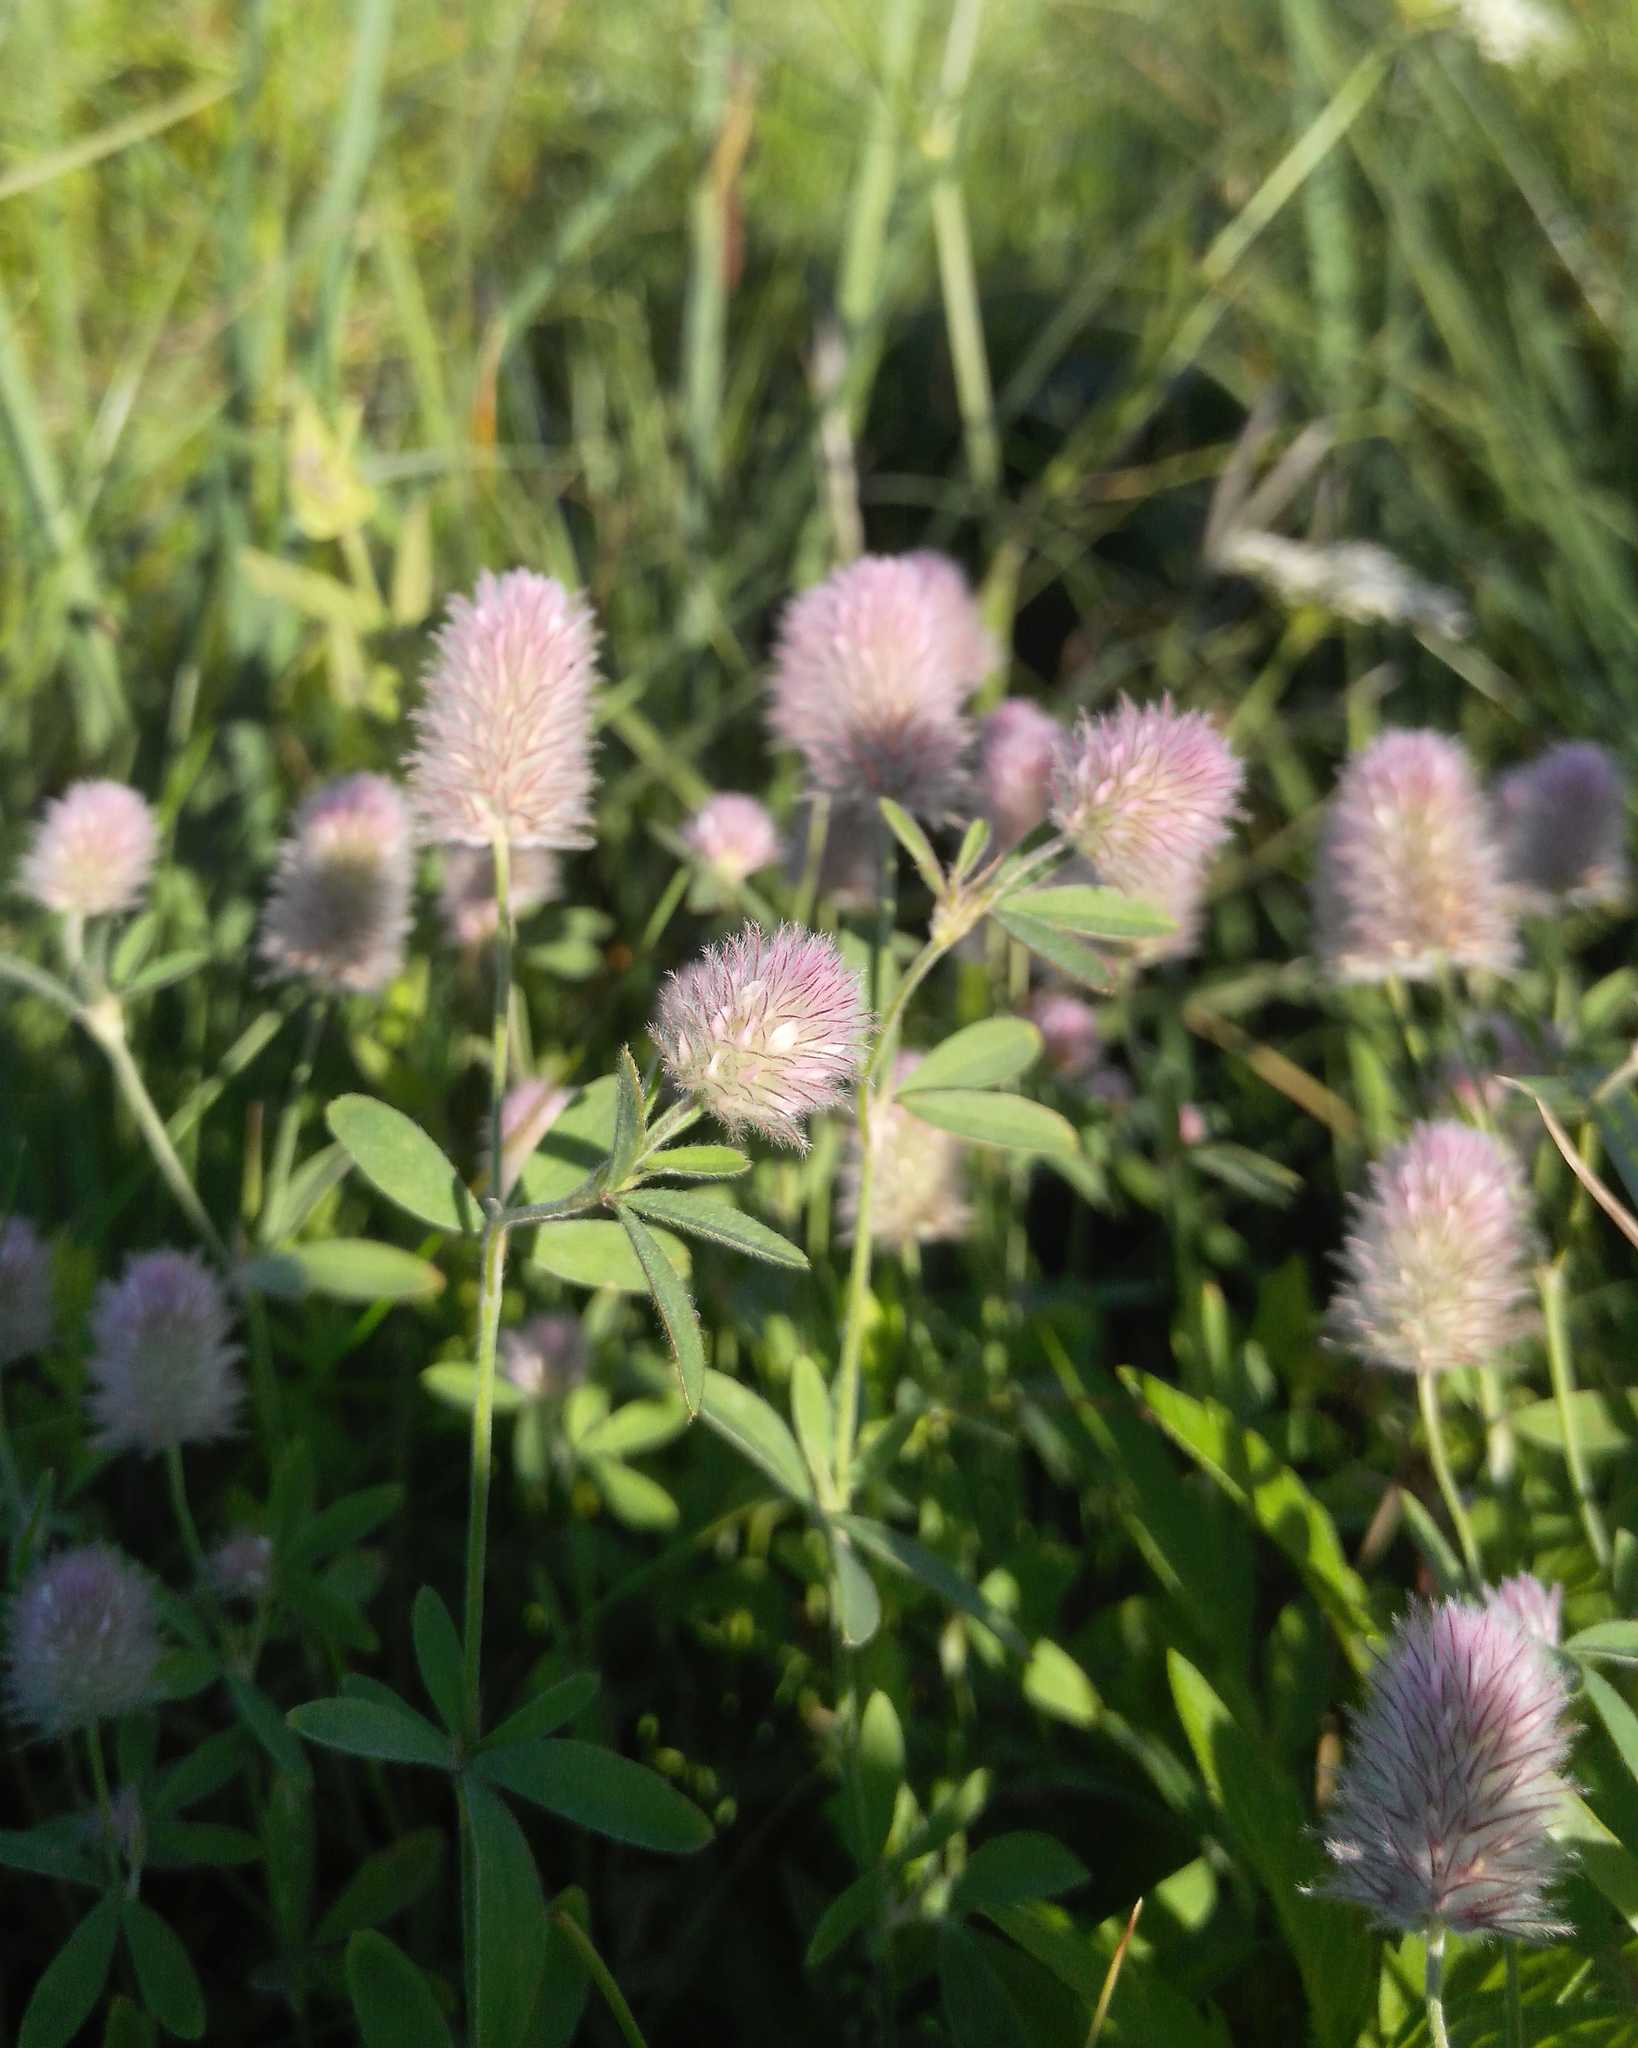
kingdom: Plantae
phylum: Tracheophyta
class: Magnoliopsida
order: Fabales
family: Fabaceae
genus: Trifolium
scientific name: Trifolium arvense
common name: Hare's-foot clover
